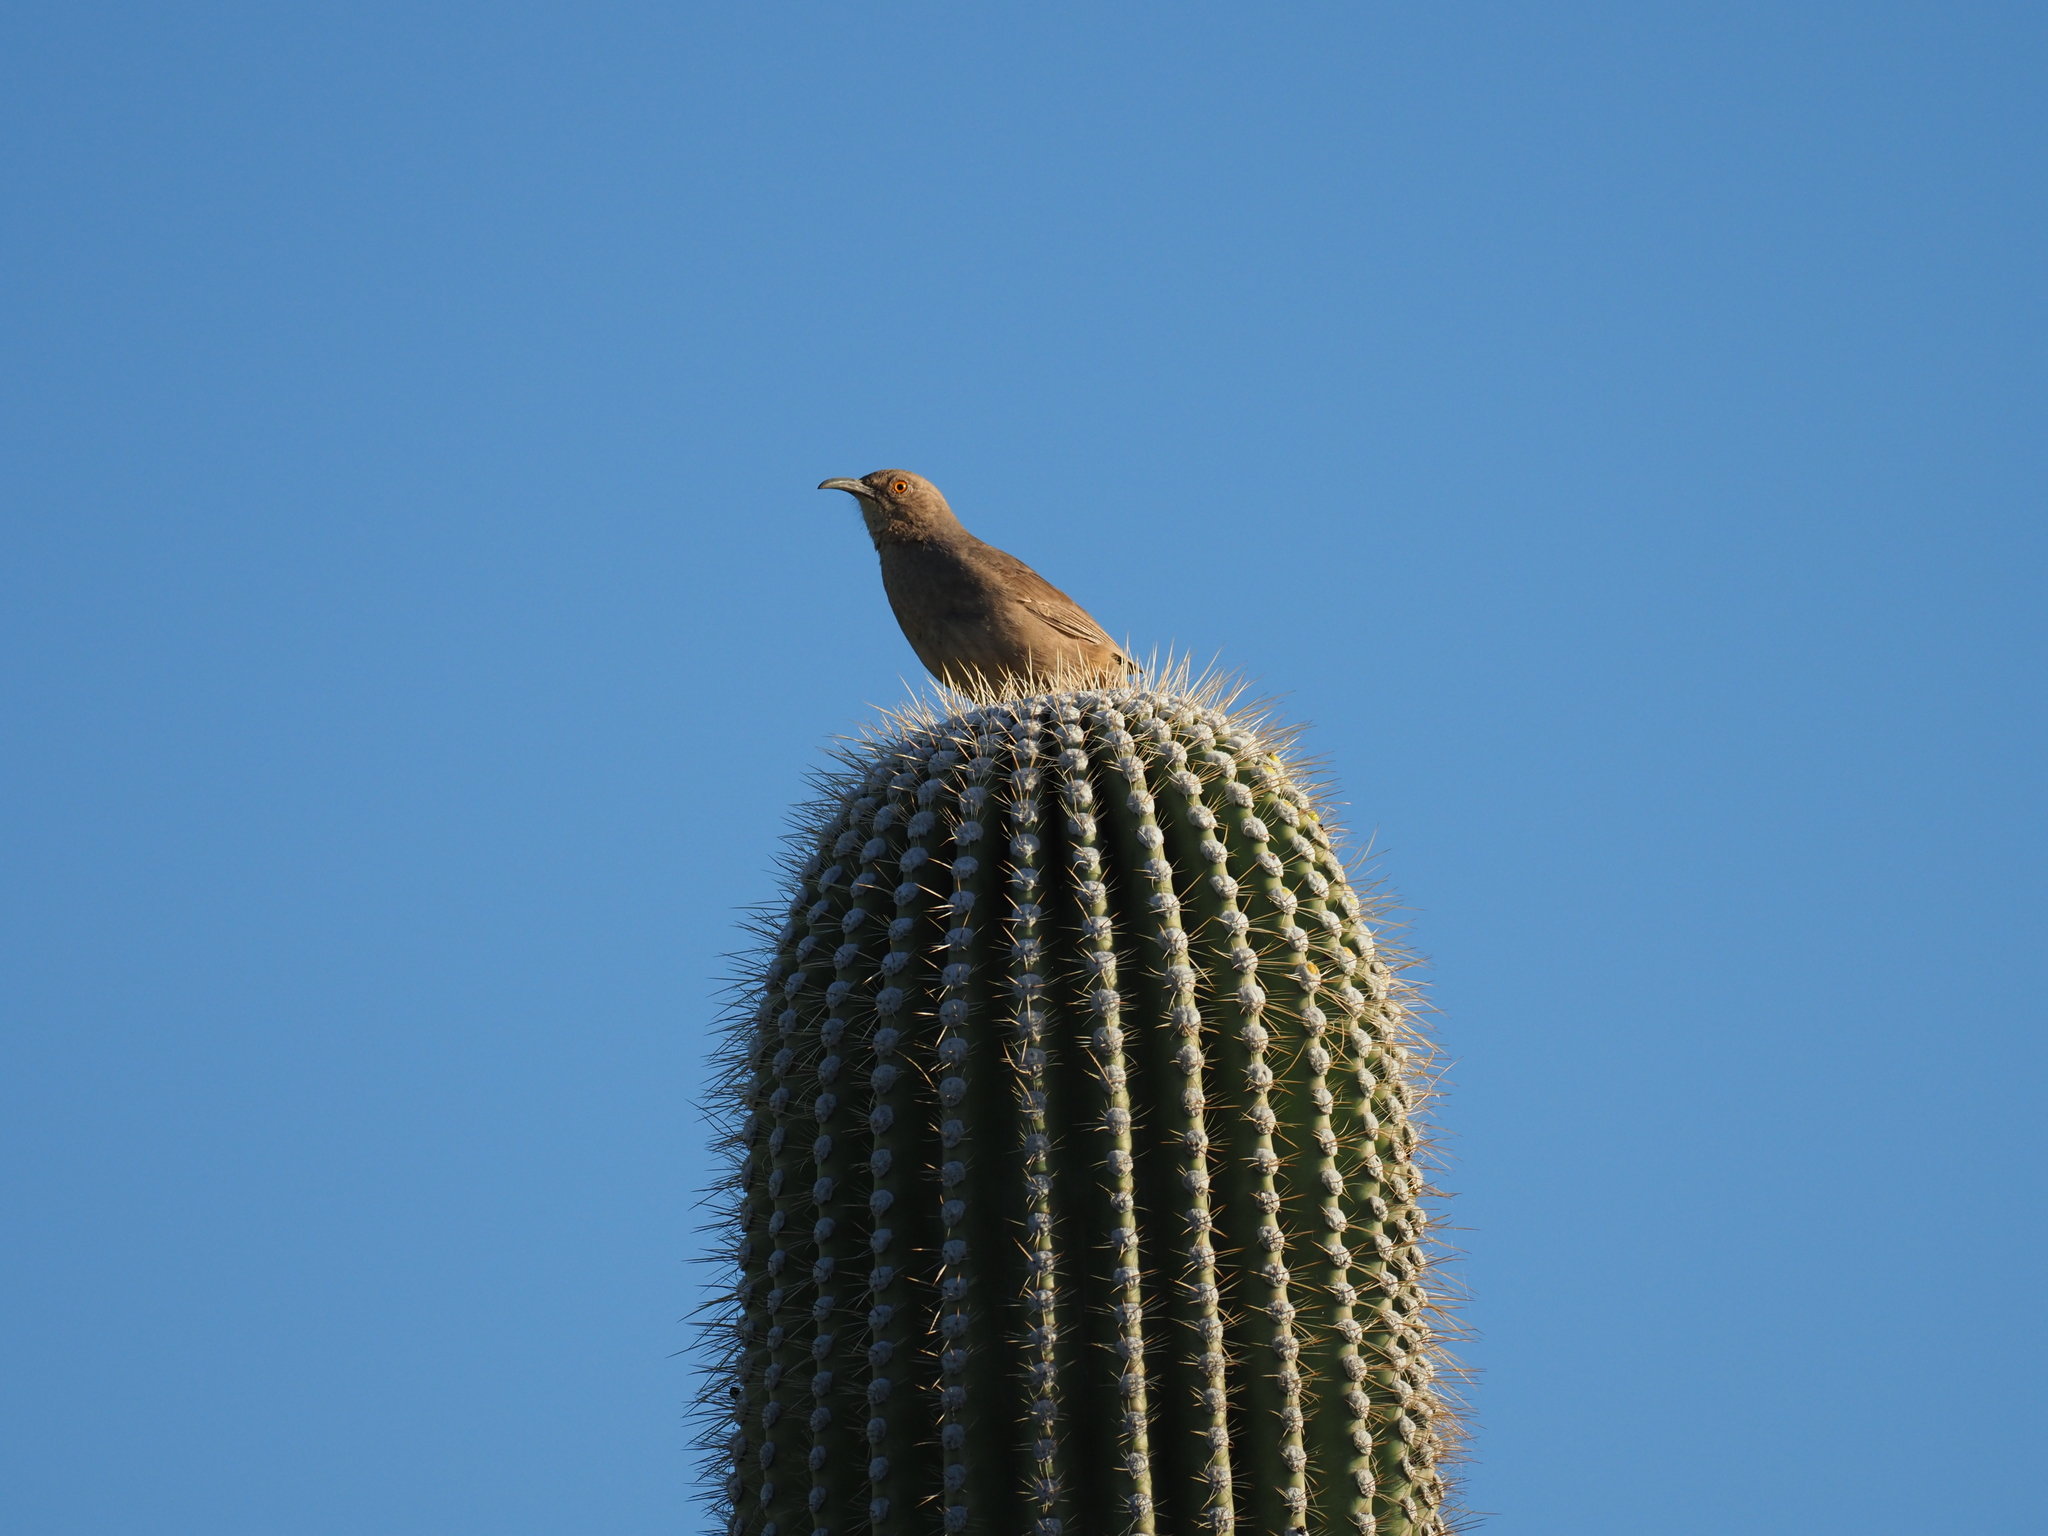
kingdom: Animalia
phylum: Chordata
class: Aves
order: Passeriformes
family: Mimidae
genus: Toxostoma
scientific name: Toxostoma curvirostre
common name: Curve-billed thrasher
